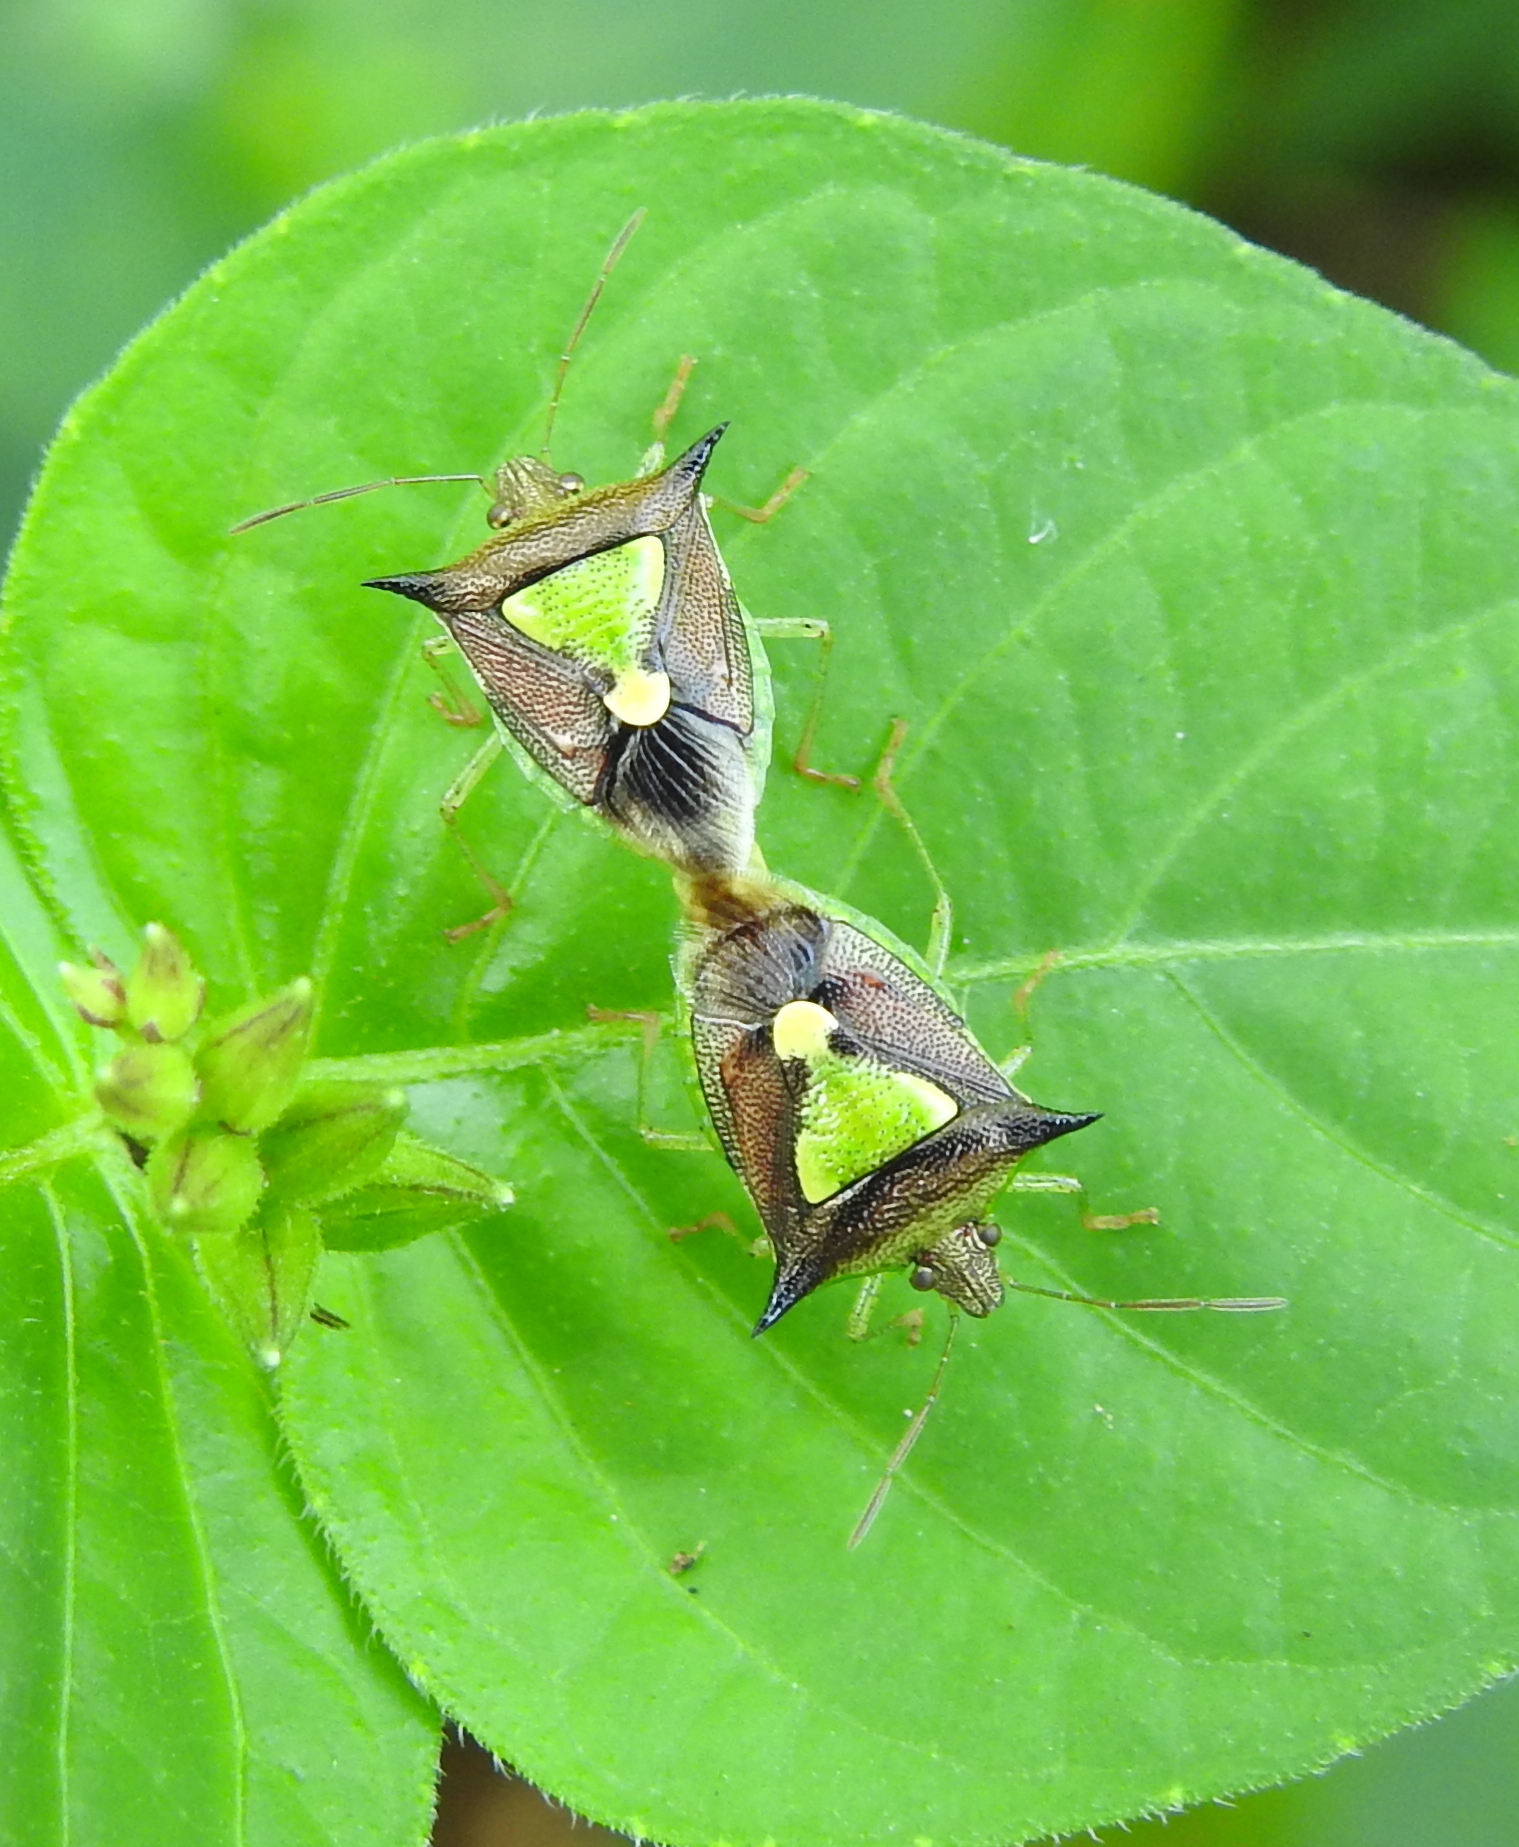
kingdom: Animalia
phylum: Arthropoda
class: Insecta
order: Hemiptera
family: Pentatomidae
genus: Carbula
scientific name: Carbula scutellata
